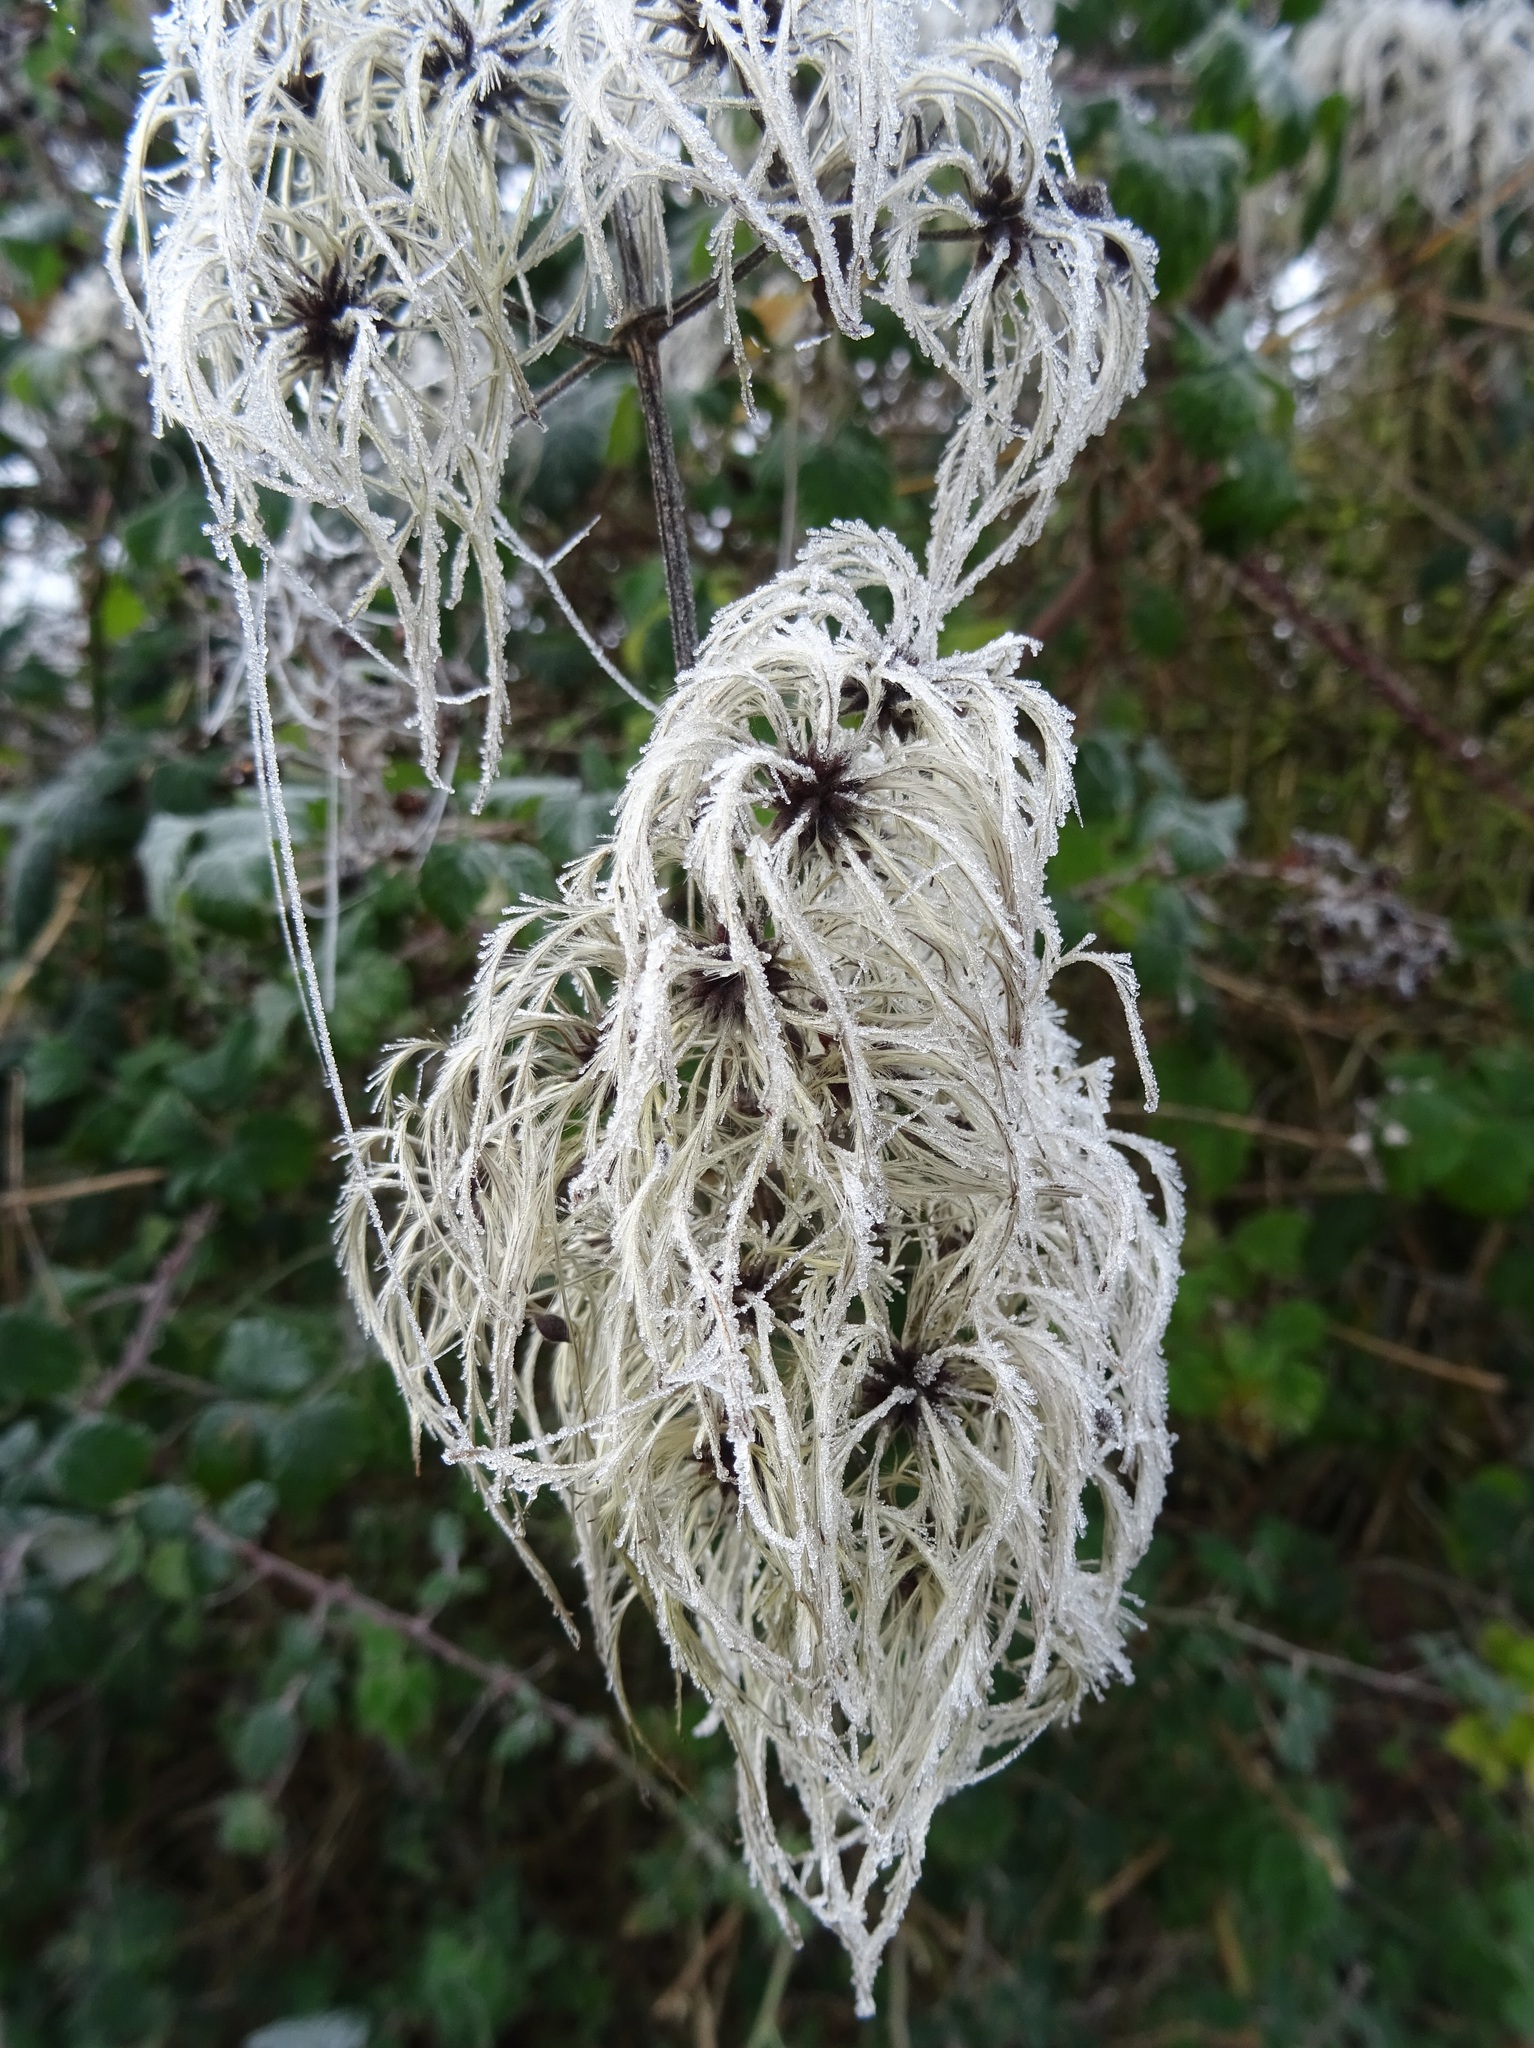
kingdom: Plantae
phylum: Tracheophyta
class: Magnoliopsida
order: Ranunculales
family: Ranunculaceae
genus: Clematis
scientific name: Clematis vitalba
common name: Evergreen clematis
